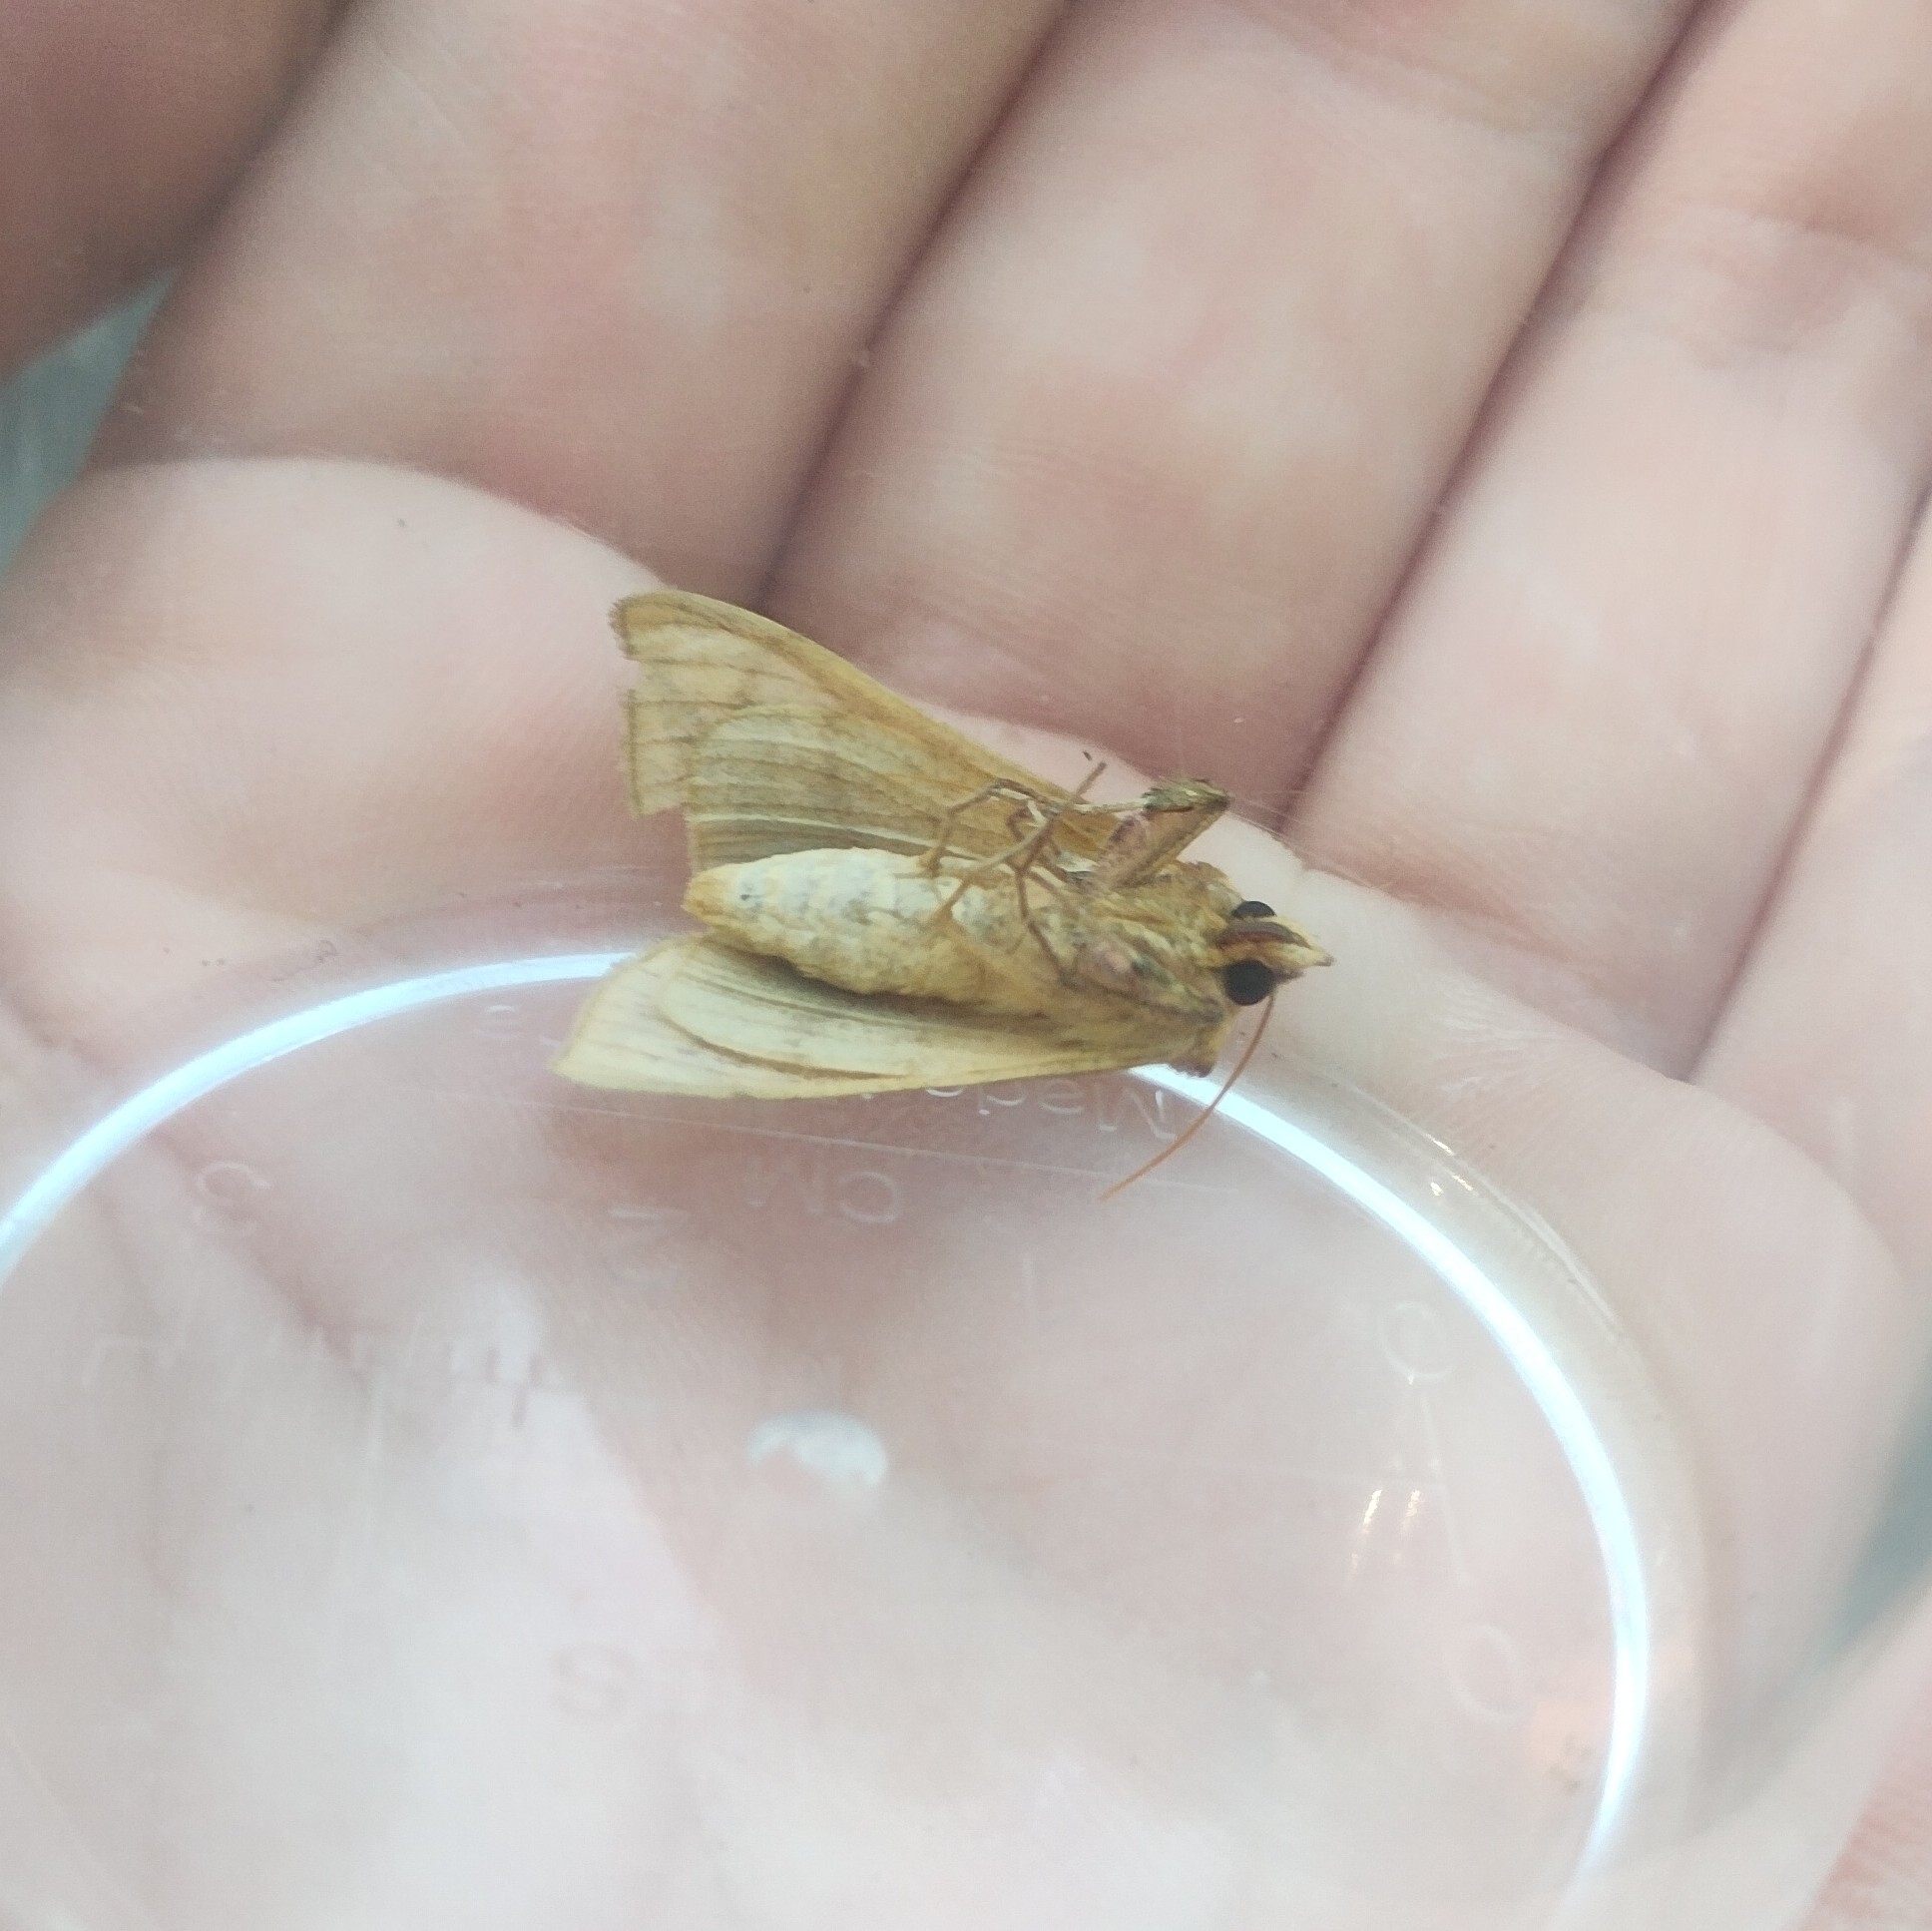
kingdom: Animalia
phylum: Arthropoda
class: Insecta
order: Lepidoptera
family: Noctuidae
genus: Panchrysia
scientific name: Panchrysia deaurata
